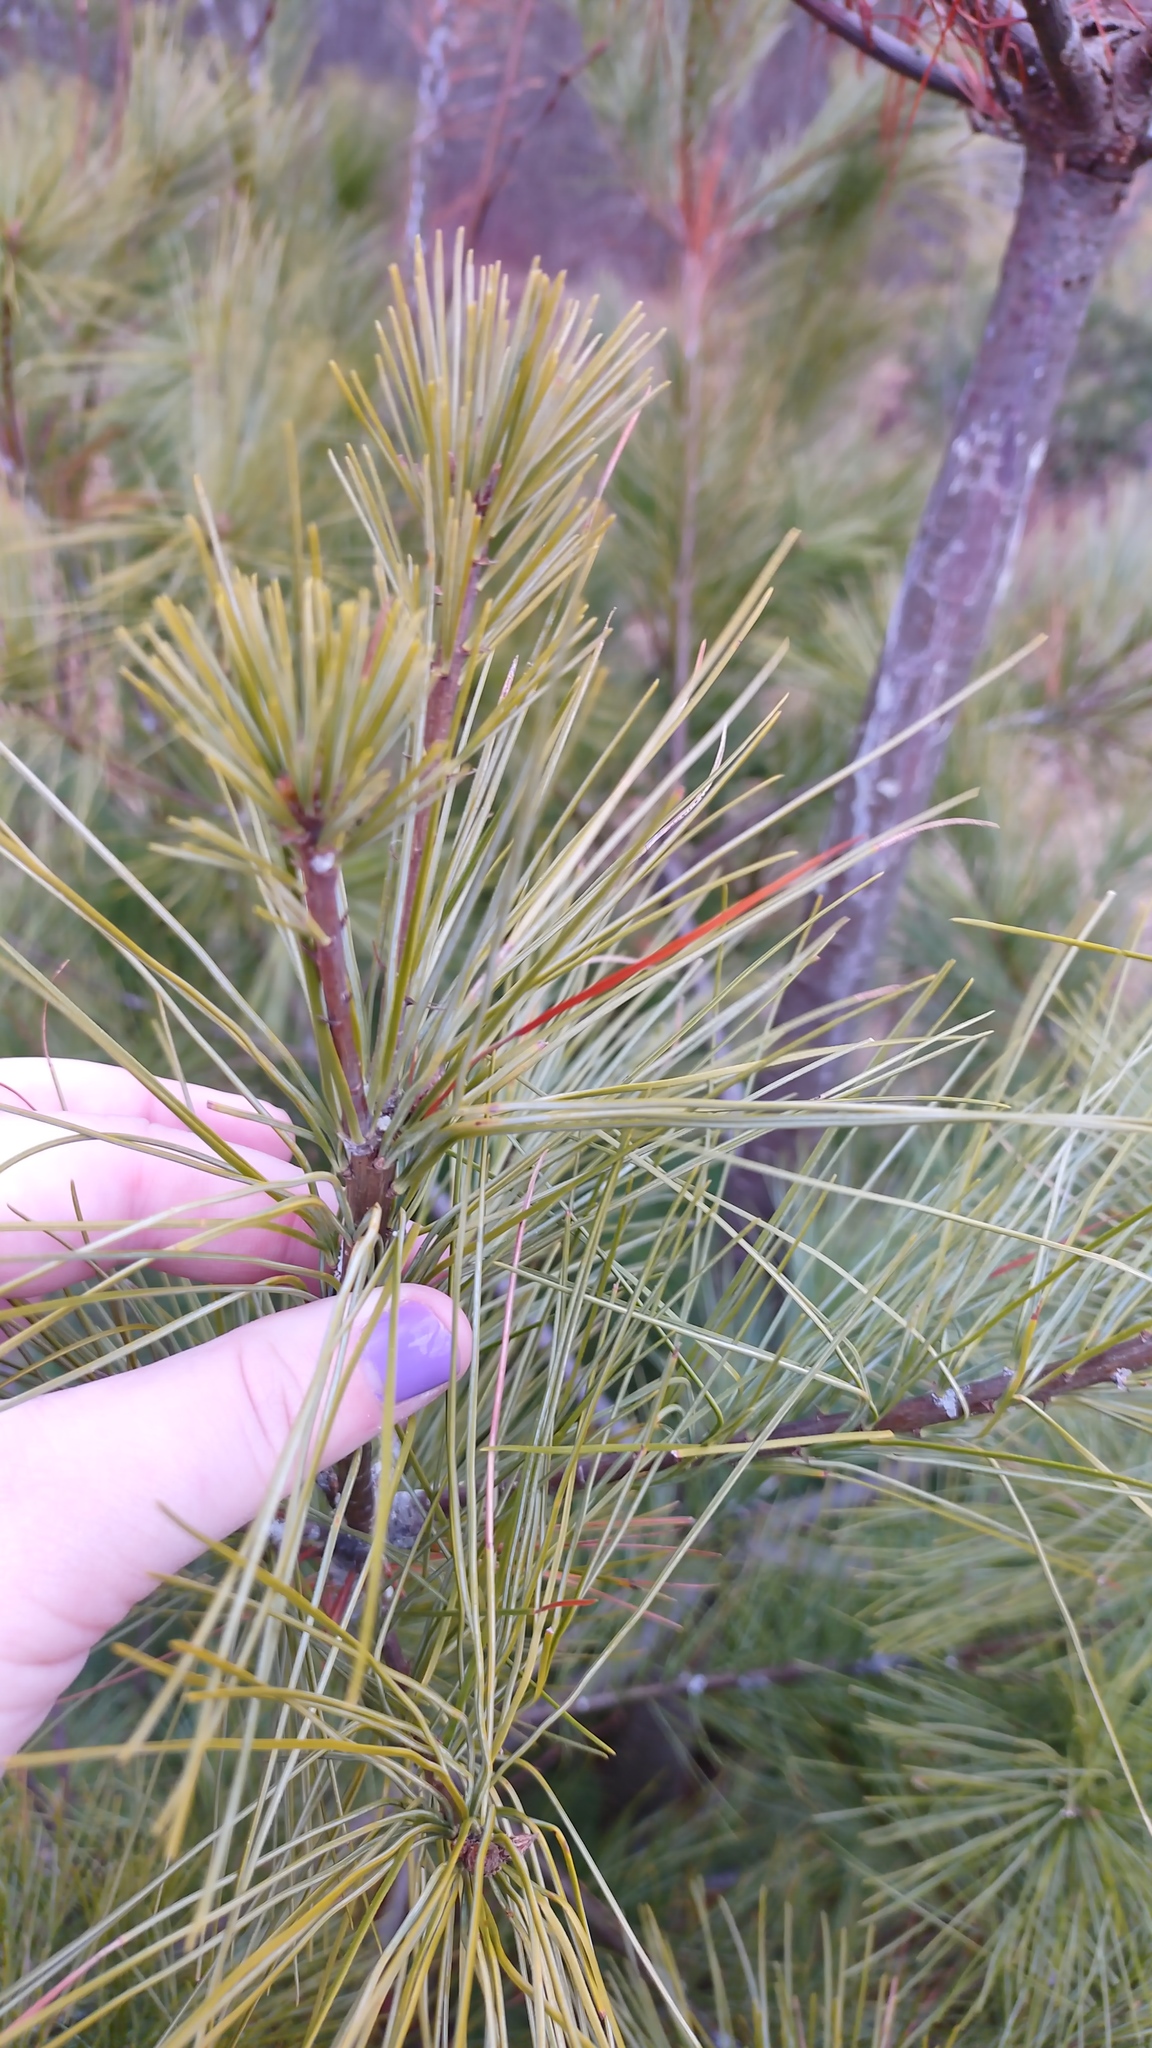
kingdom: Plantae
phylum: Tracheophyta
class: Pinopsida
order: Pinales
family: Pinaceae
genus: Pinus
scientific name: Pinus strobus
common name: Weymouth pine
